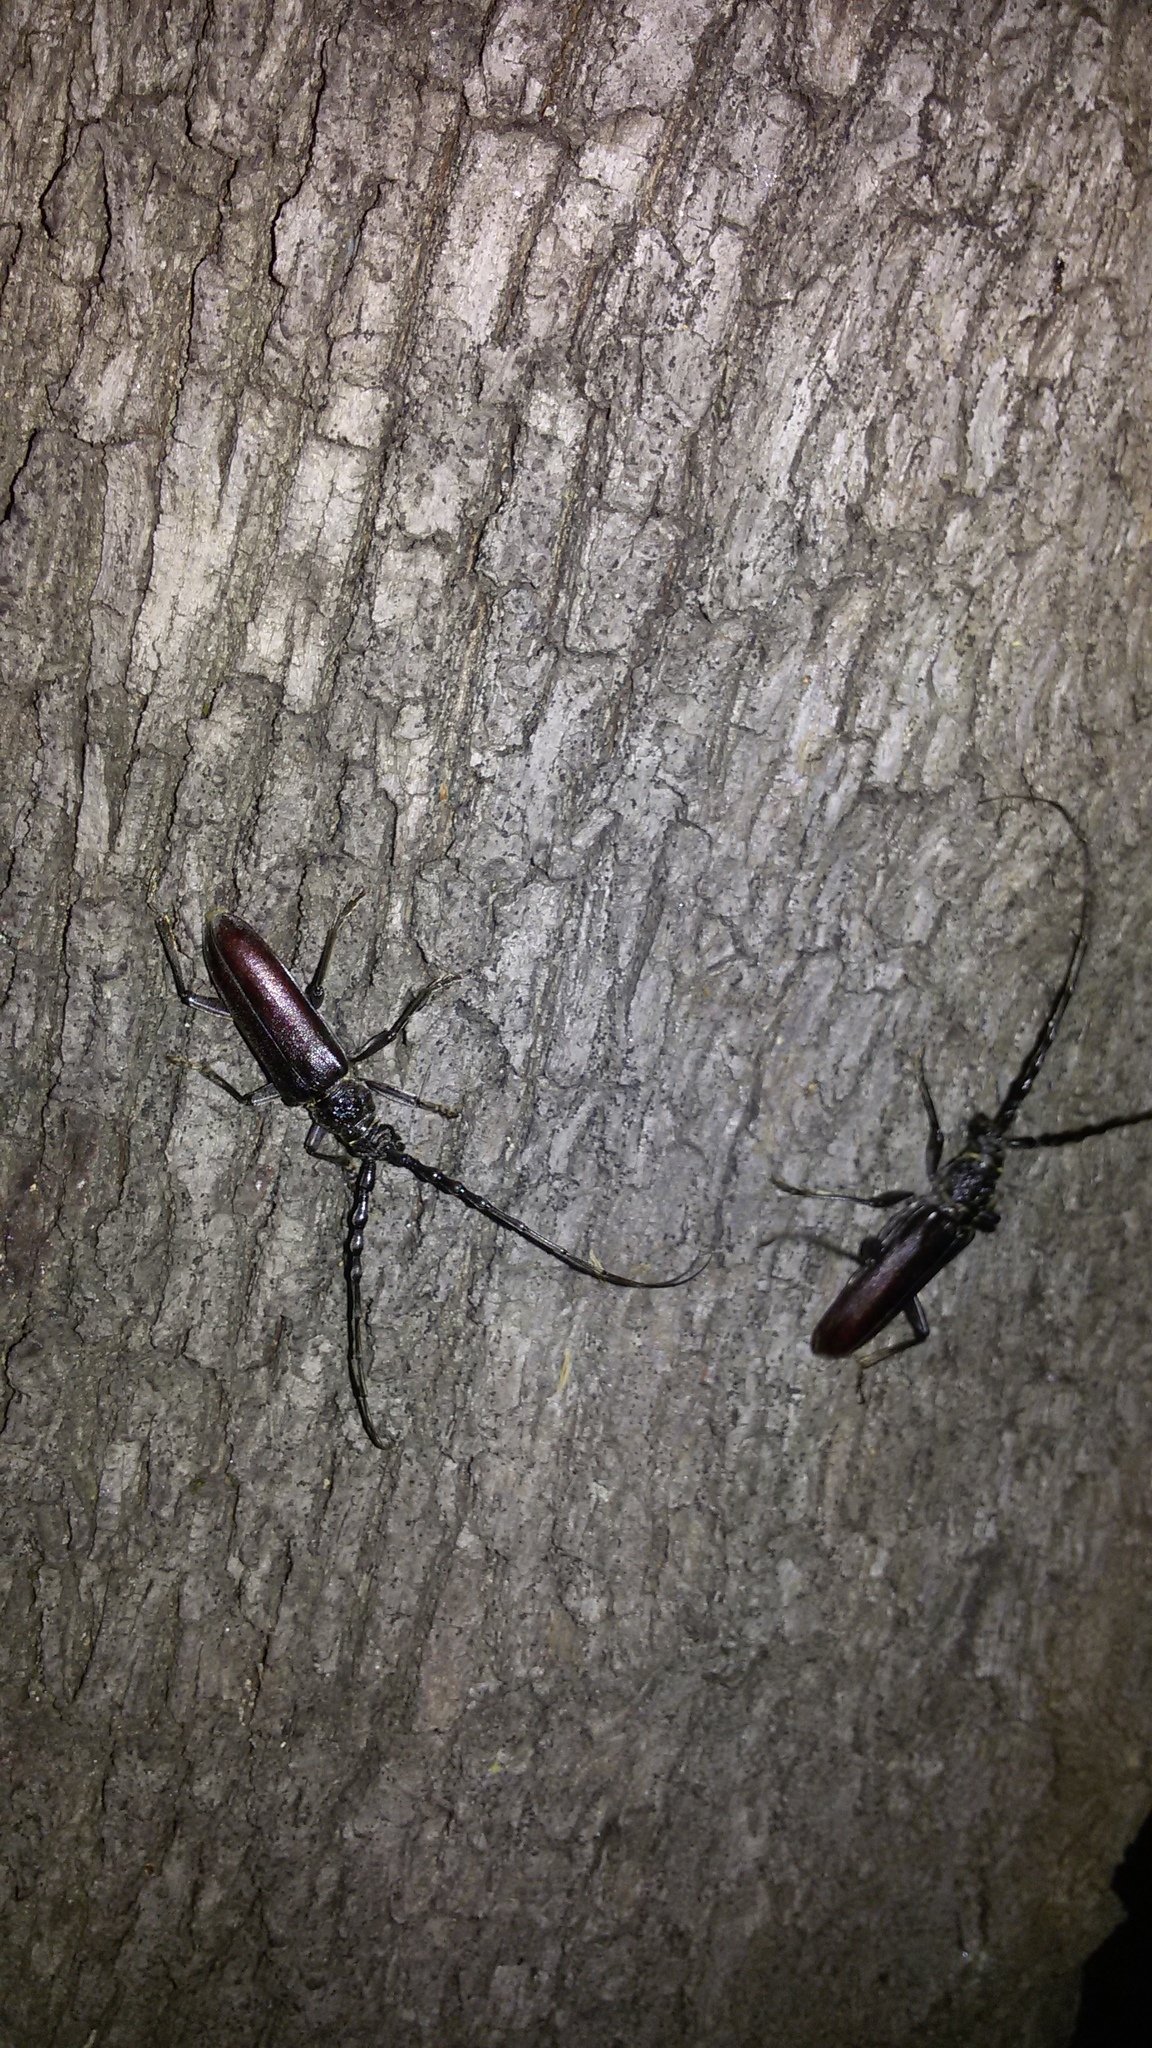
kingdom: Animalia
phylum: Arthropoda
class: Insecta
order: Coleoptera
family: Cerambycidae
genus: Cerambyx
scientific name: Cerambyx welensii
